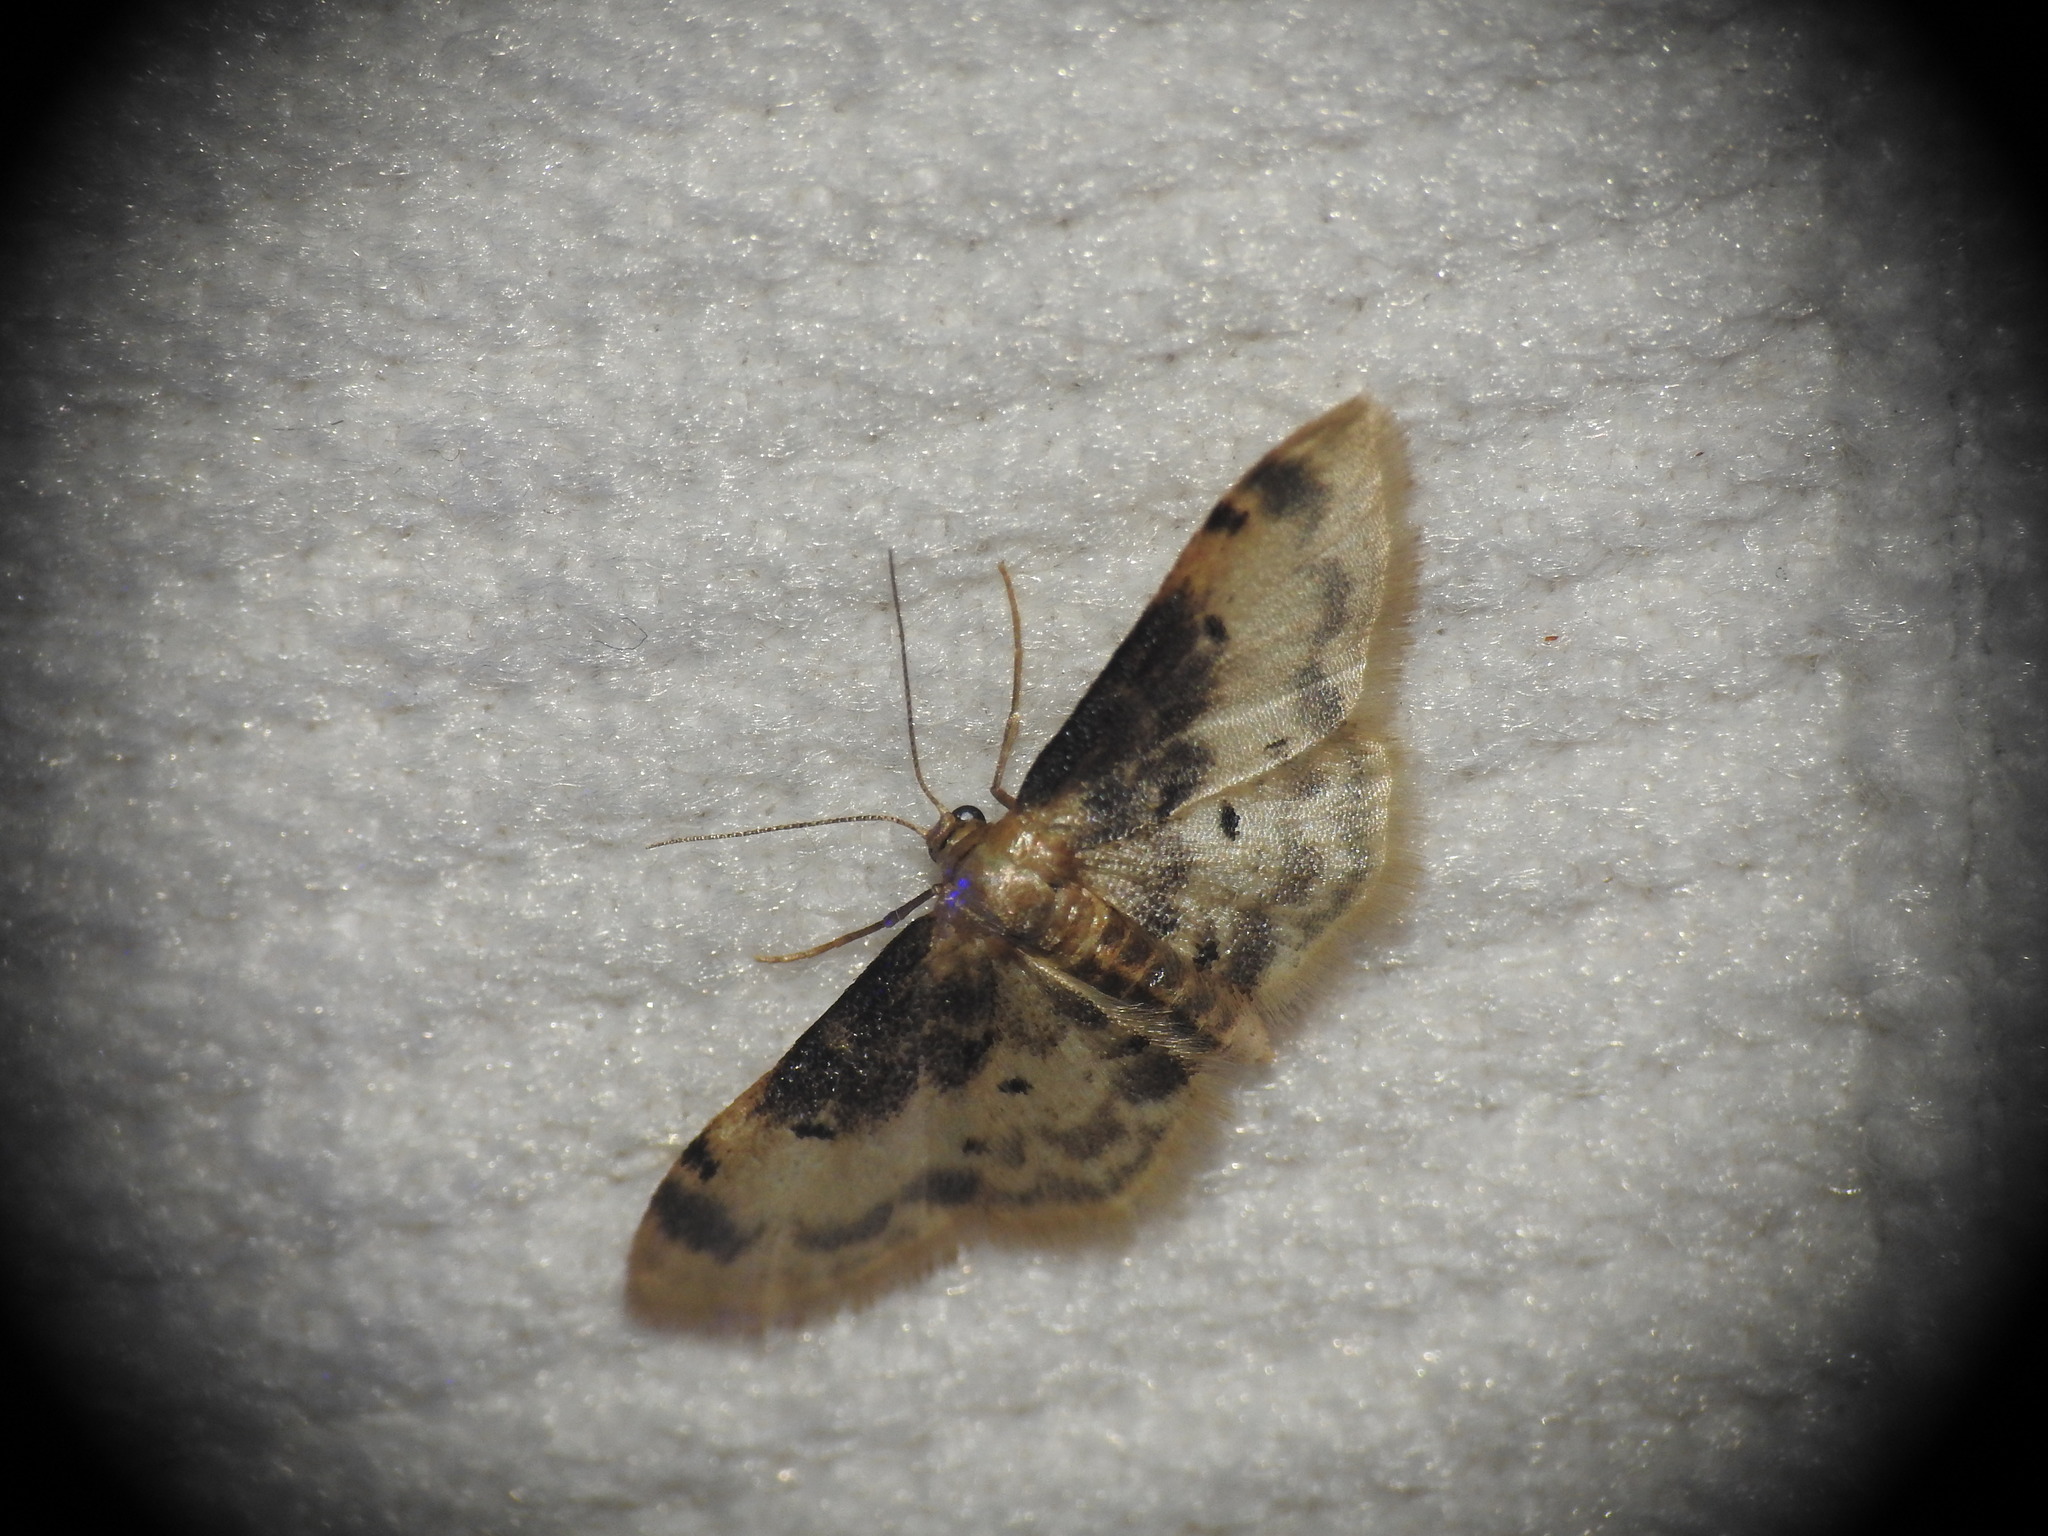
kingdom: Animalia
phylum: Arthropoda
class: Insecta
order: Lepidoptera
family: Geometridae
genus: Idaea
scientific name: Idaea filicata
